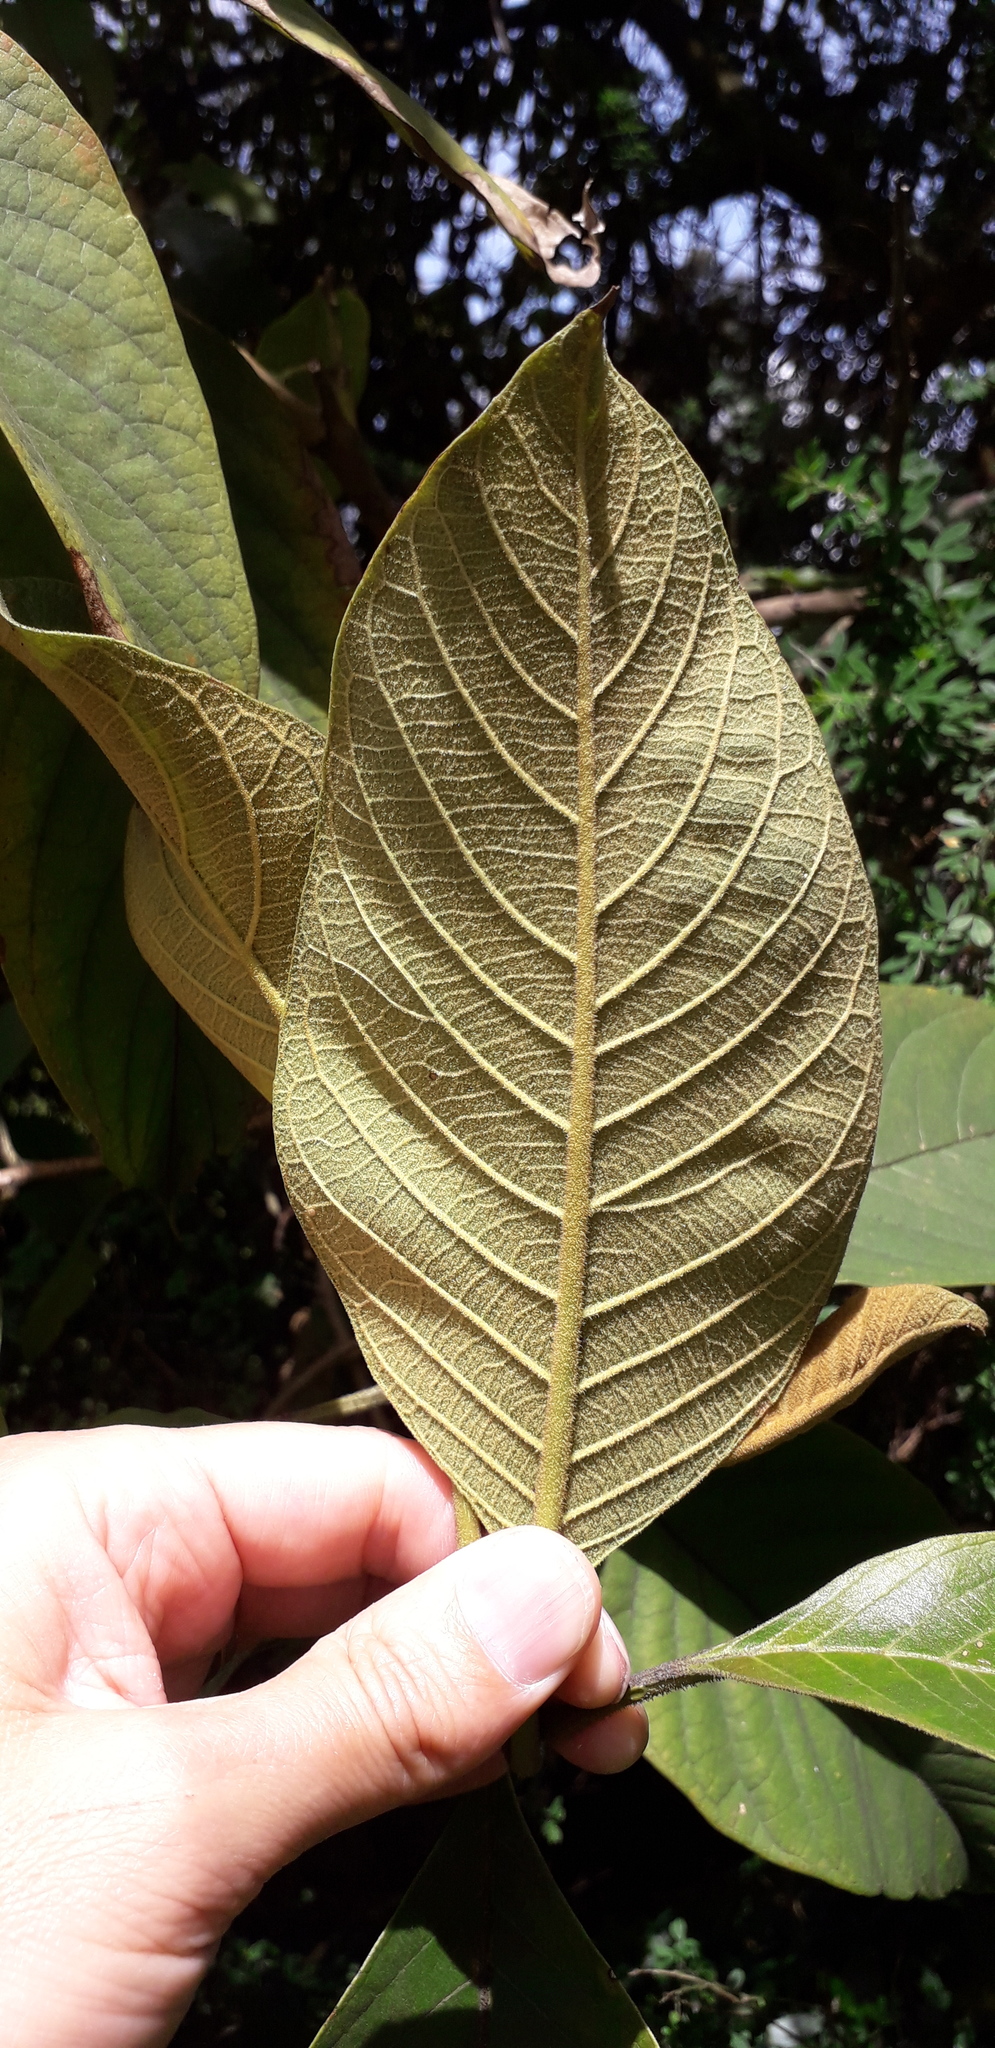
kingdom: Plantae
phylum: Tracheophyta
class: Magnoliopsida
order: Lamiales
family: Verbenaceae
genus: Citharexylum
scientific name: Citharexylum subflavescens
